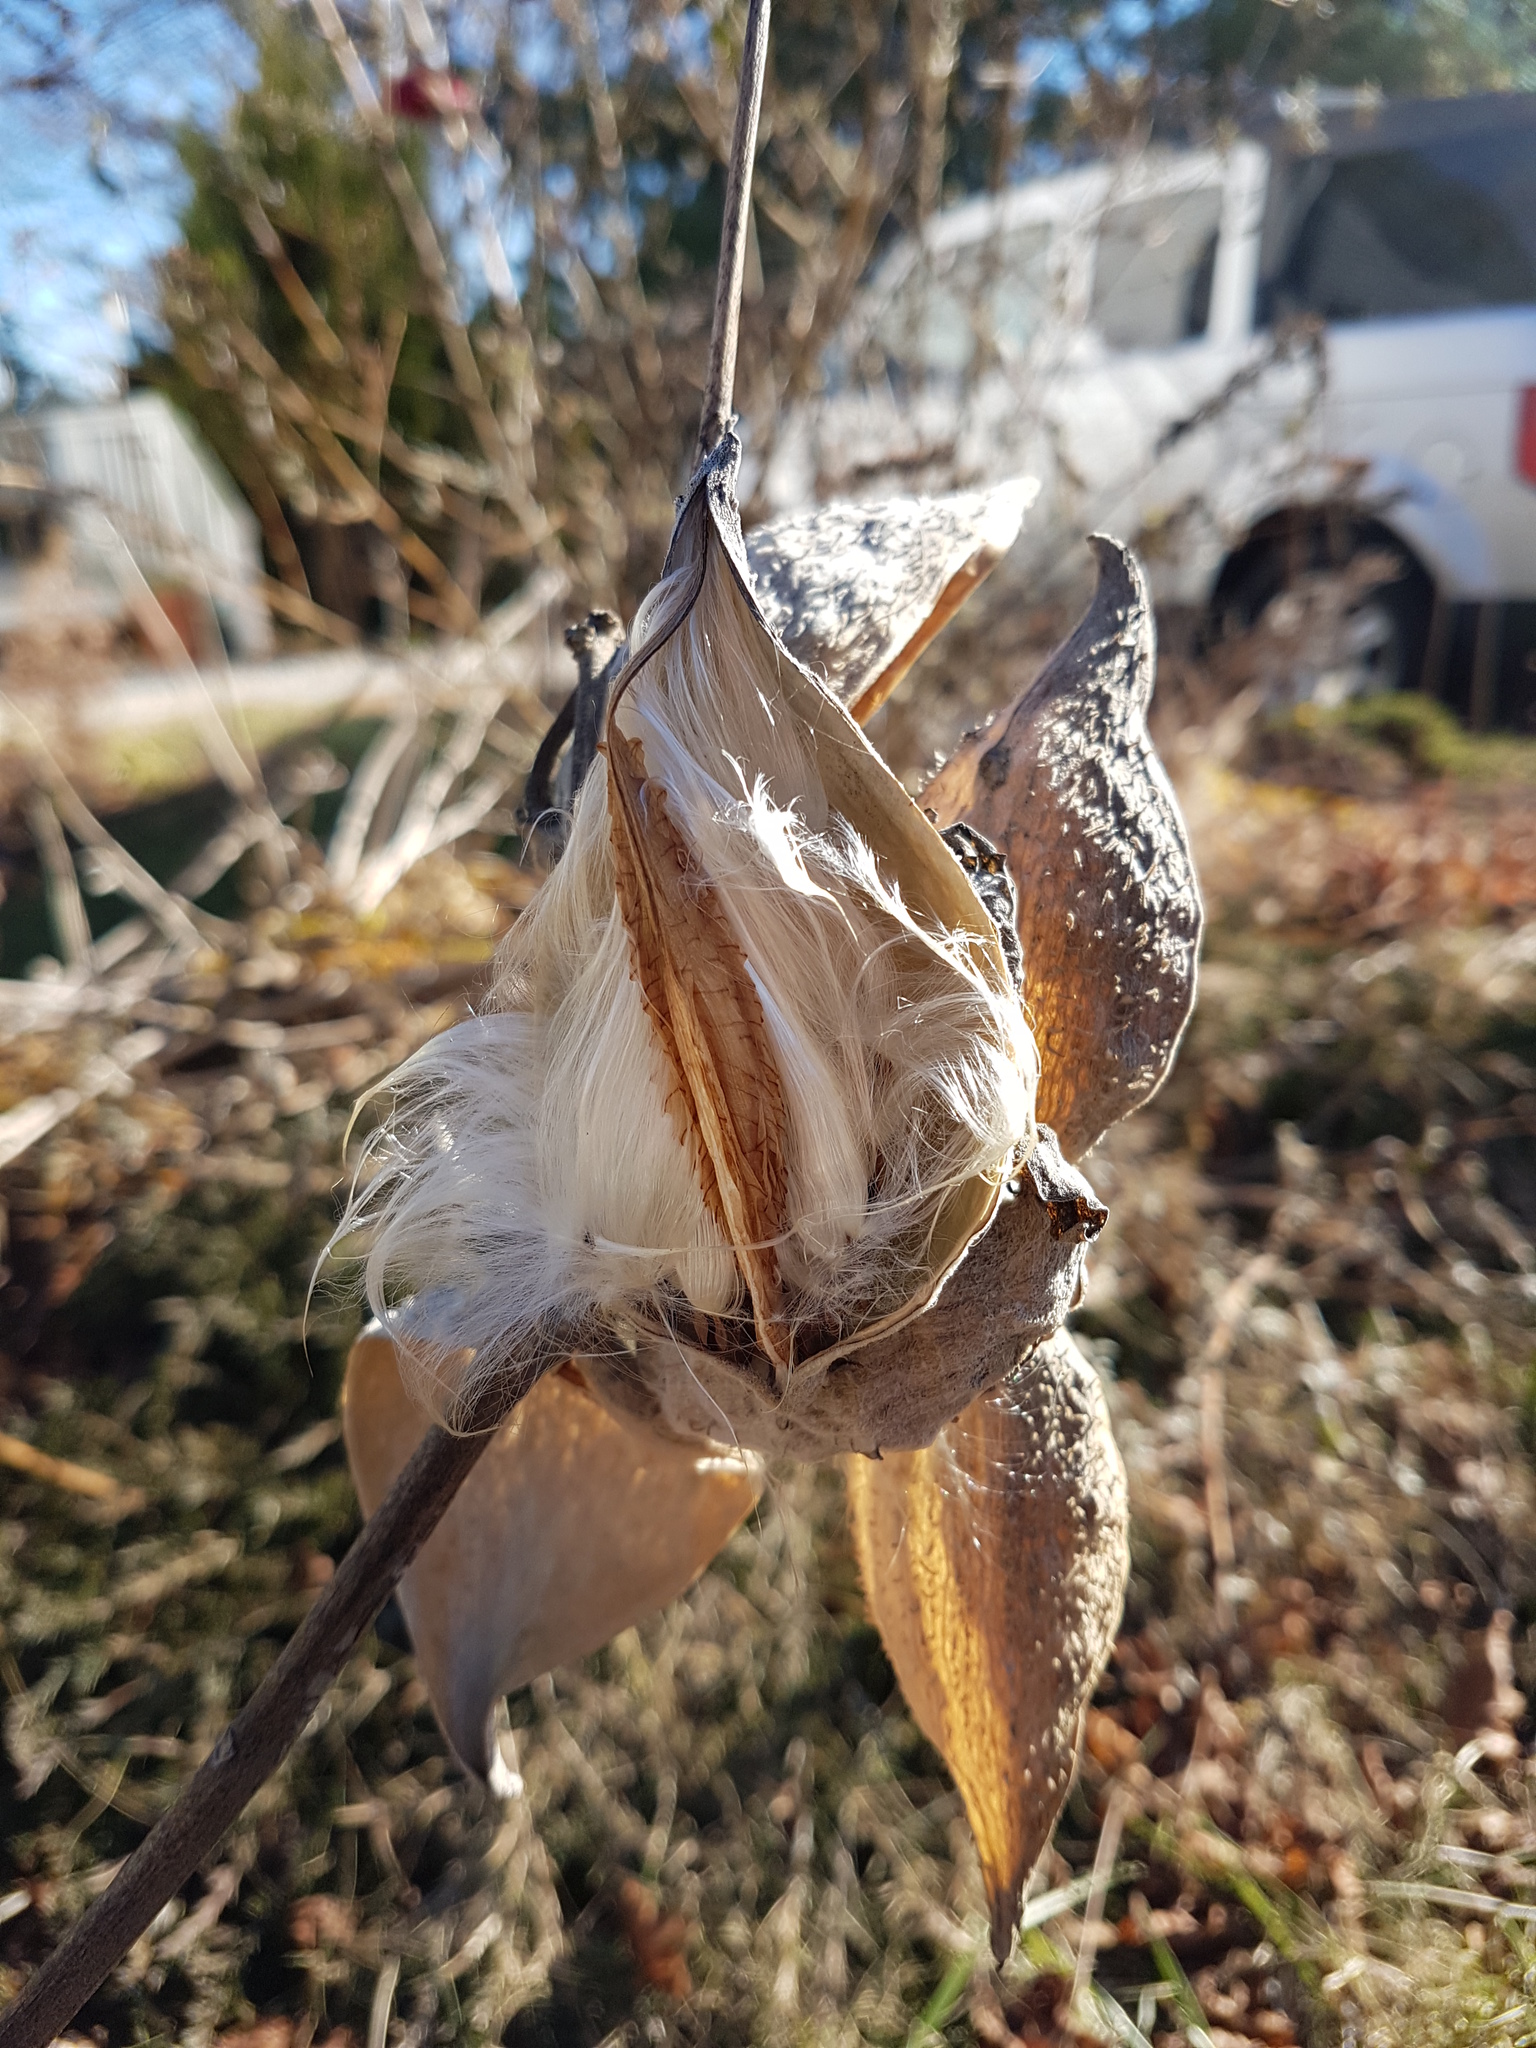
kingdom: Plantae
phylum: Tracheophyta
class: Magnoliopsida
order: Gentianales
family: Apocynaceae
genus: Asclepias
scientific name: Asclepias syriaca
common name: Common milkweed
